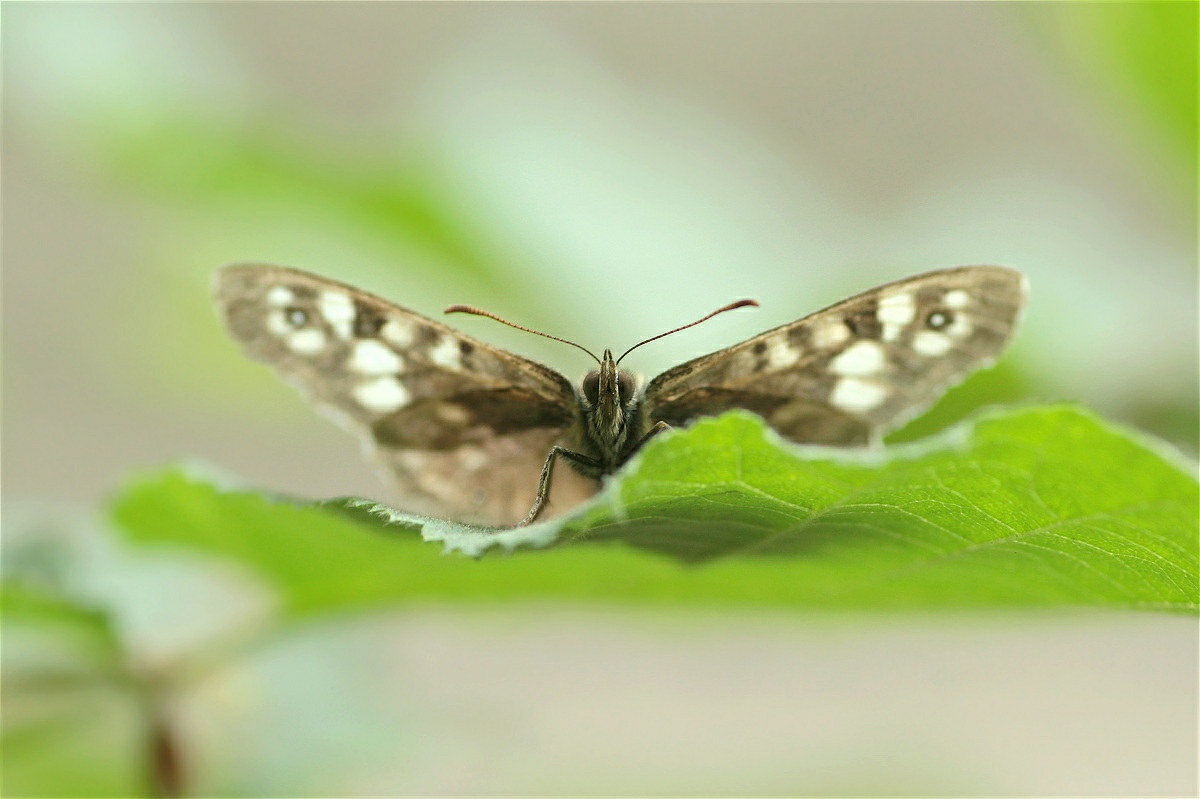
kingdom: Animalia
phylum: Arthropoda
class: Insecta
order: Lepidoptera
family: Nymphalidae
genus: Pararge
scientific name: Pararge aegeria
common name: Speckled wood
